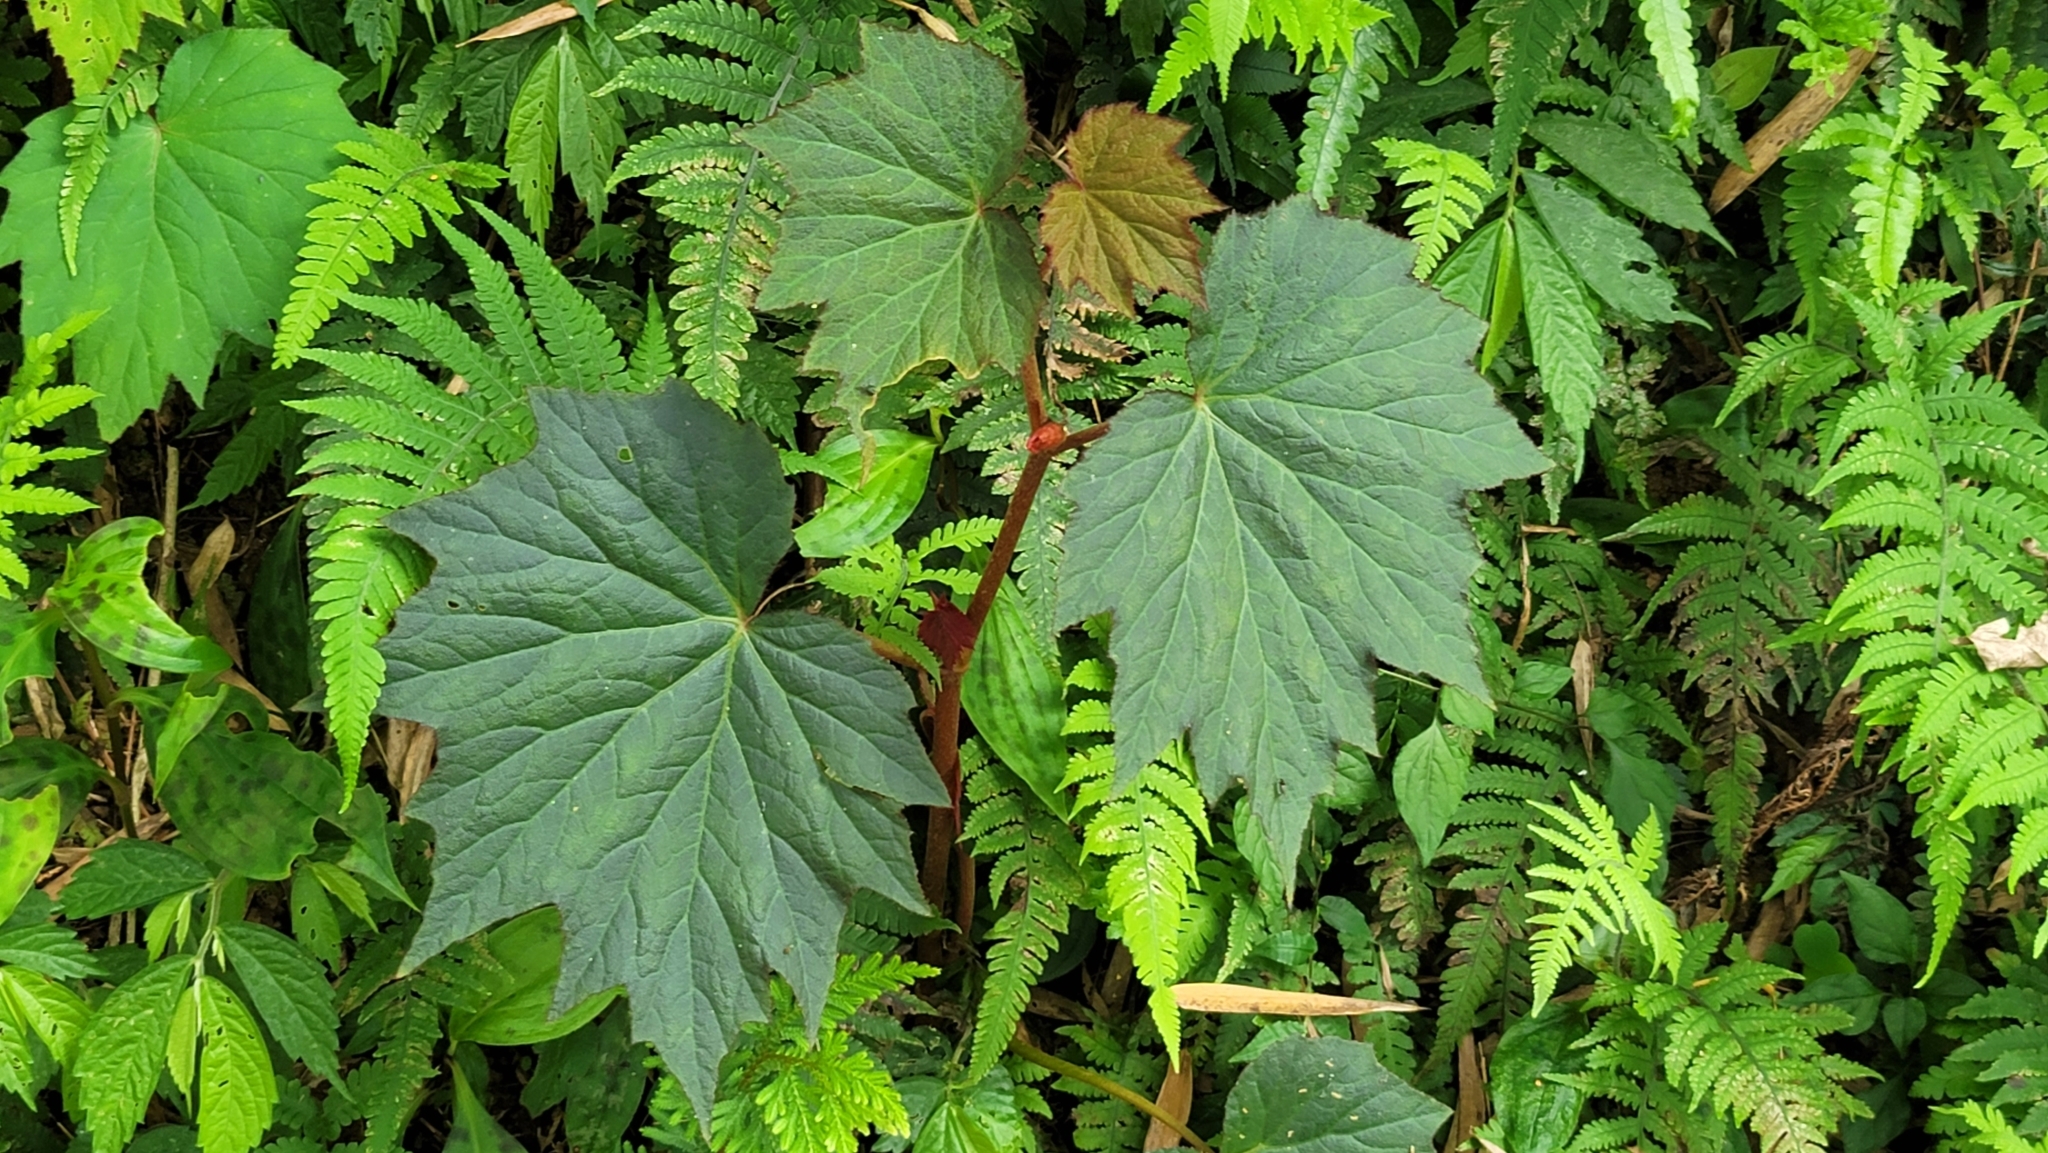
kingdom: Plantae
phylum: Tracheophyta
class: Magnoliopsida
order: Cucurbitales
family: Begoniaceae
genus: Begonia
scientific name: Begonia palmata
